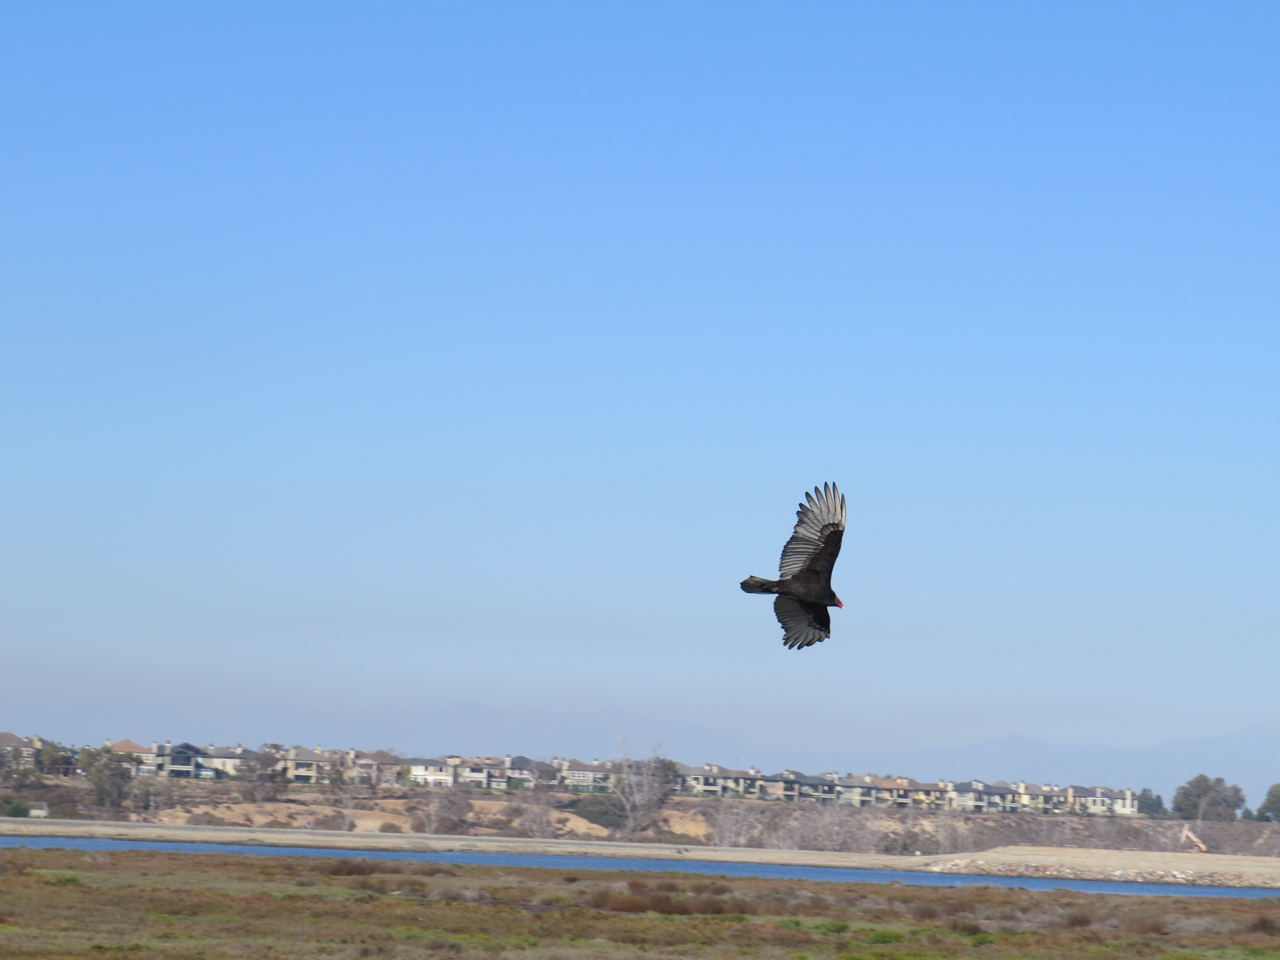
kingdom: Animalia
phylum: Chordata
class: Aves
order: Accipitriformes
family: Cathartidae
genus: Cathartes
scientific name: Cathartes aura
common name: Turkey vulture
